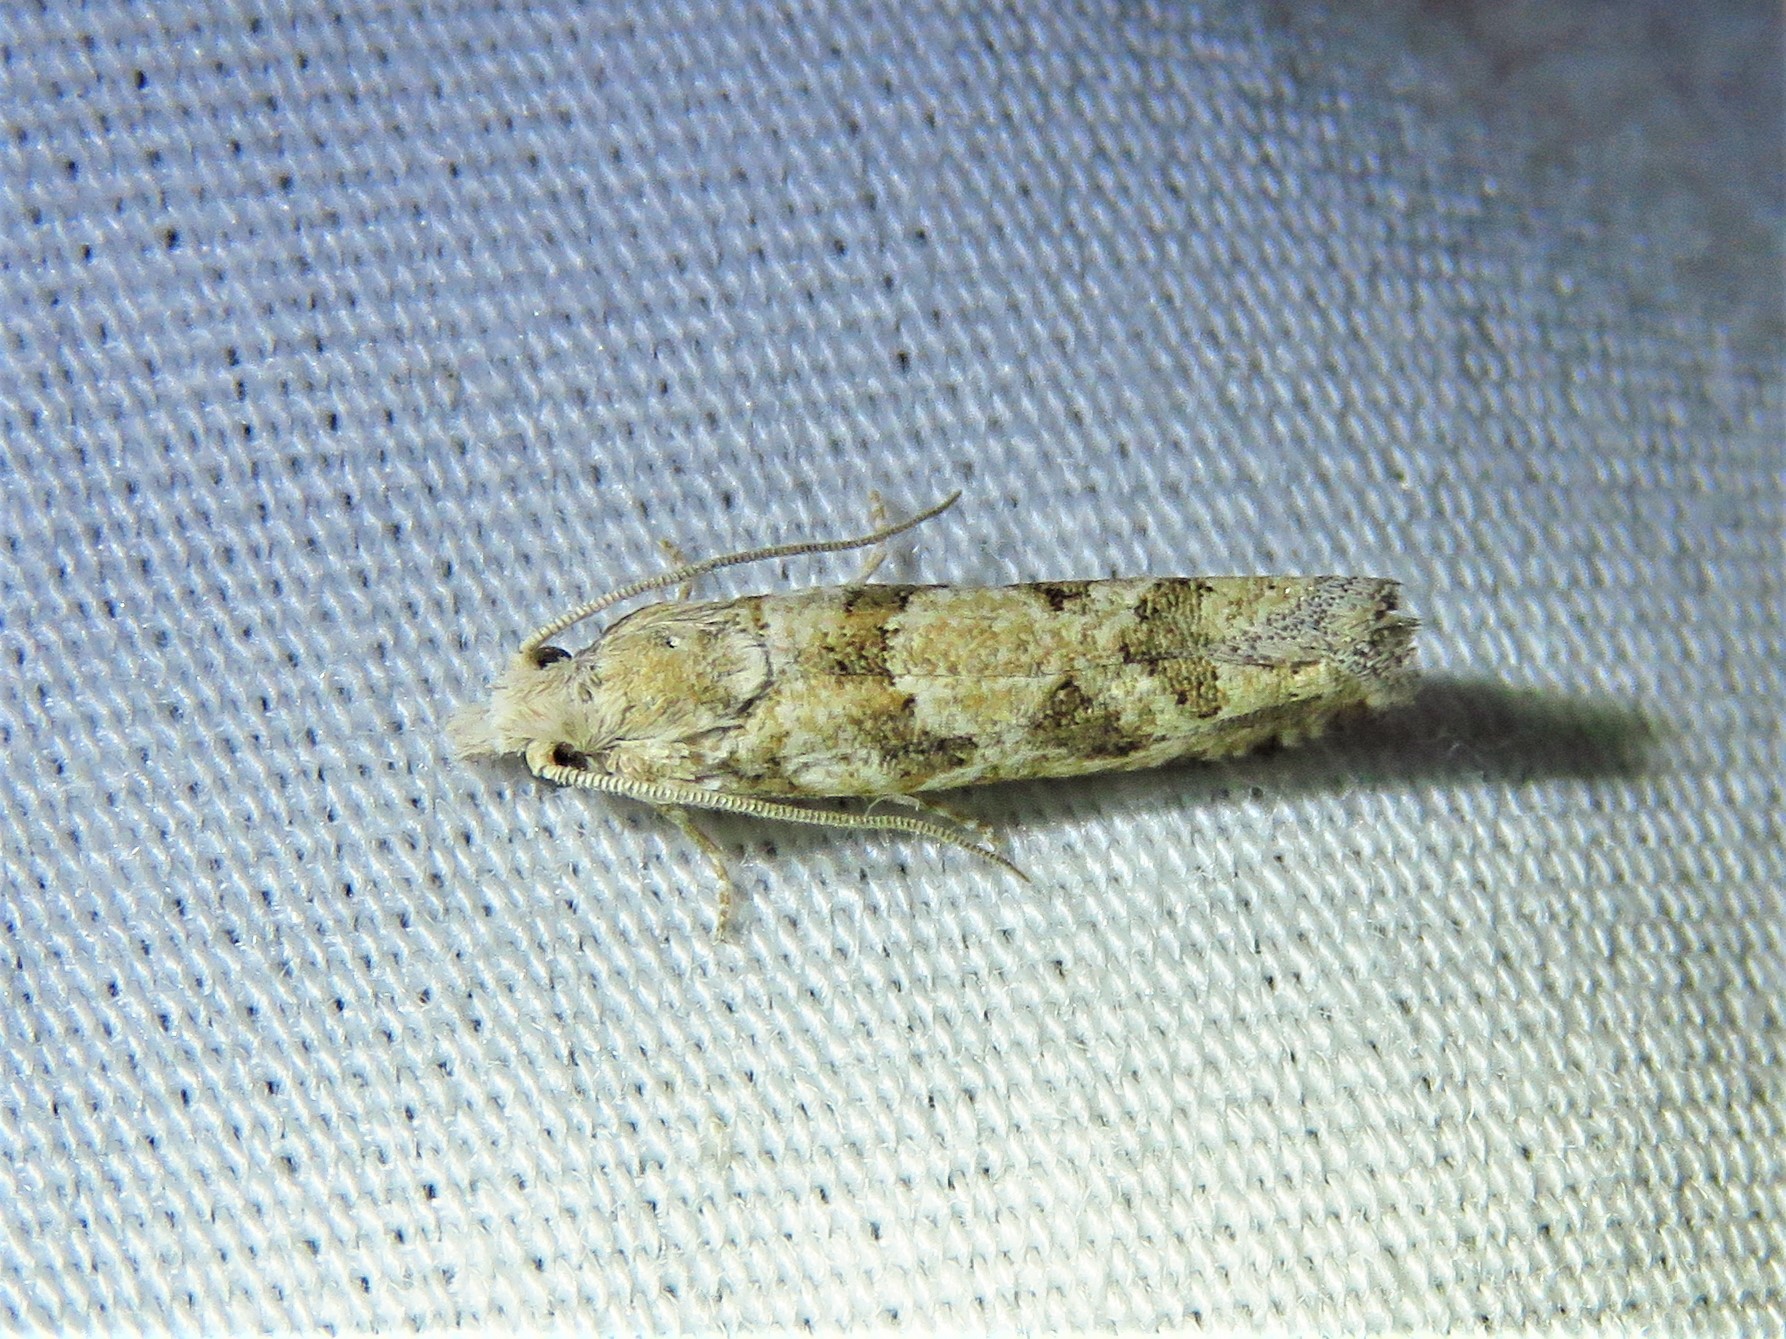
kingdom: Animalia
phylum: Arthropoda
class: Insecta
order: Lepidoptera
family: Tortricidae
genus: Pelochrista
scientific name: Pelochrista reversana
